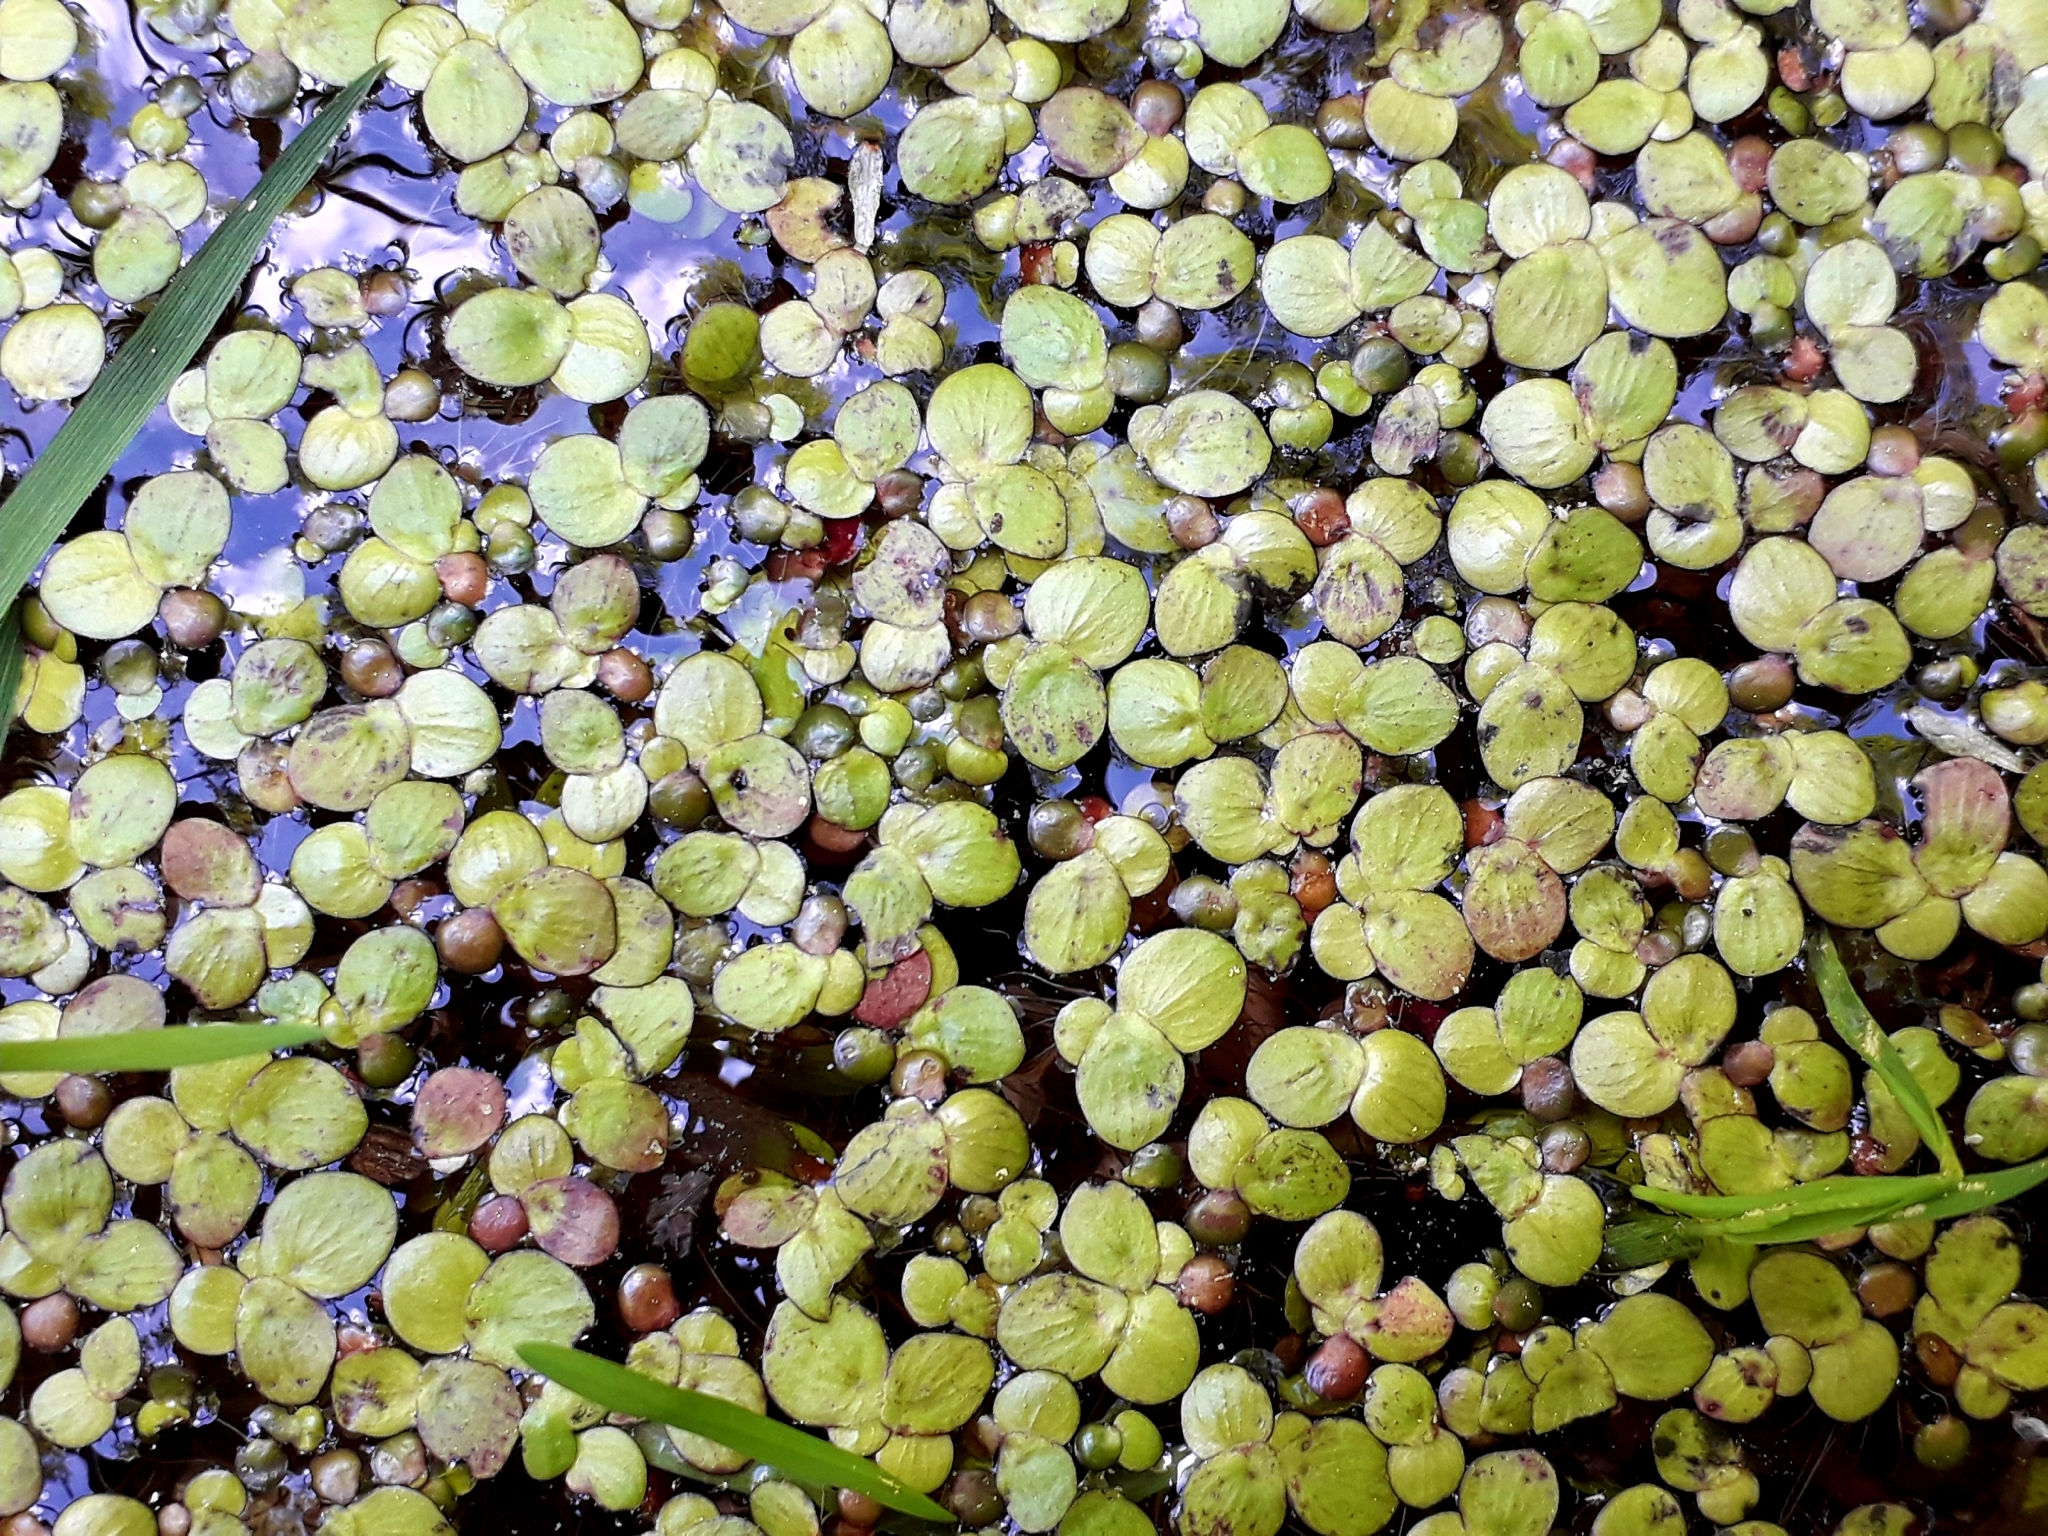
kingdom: Plantae
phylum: Tracheophyta
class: Liliopsida
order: Alismatales
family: Araceae
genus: Spirodela
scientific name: Spirodela polyrhiza
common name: Great duckweed
